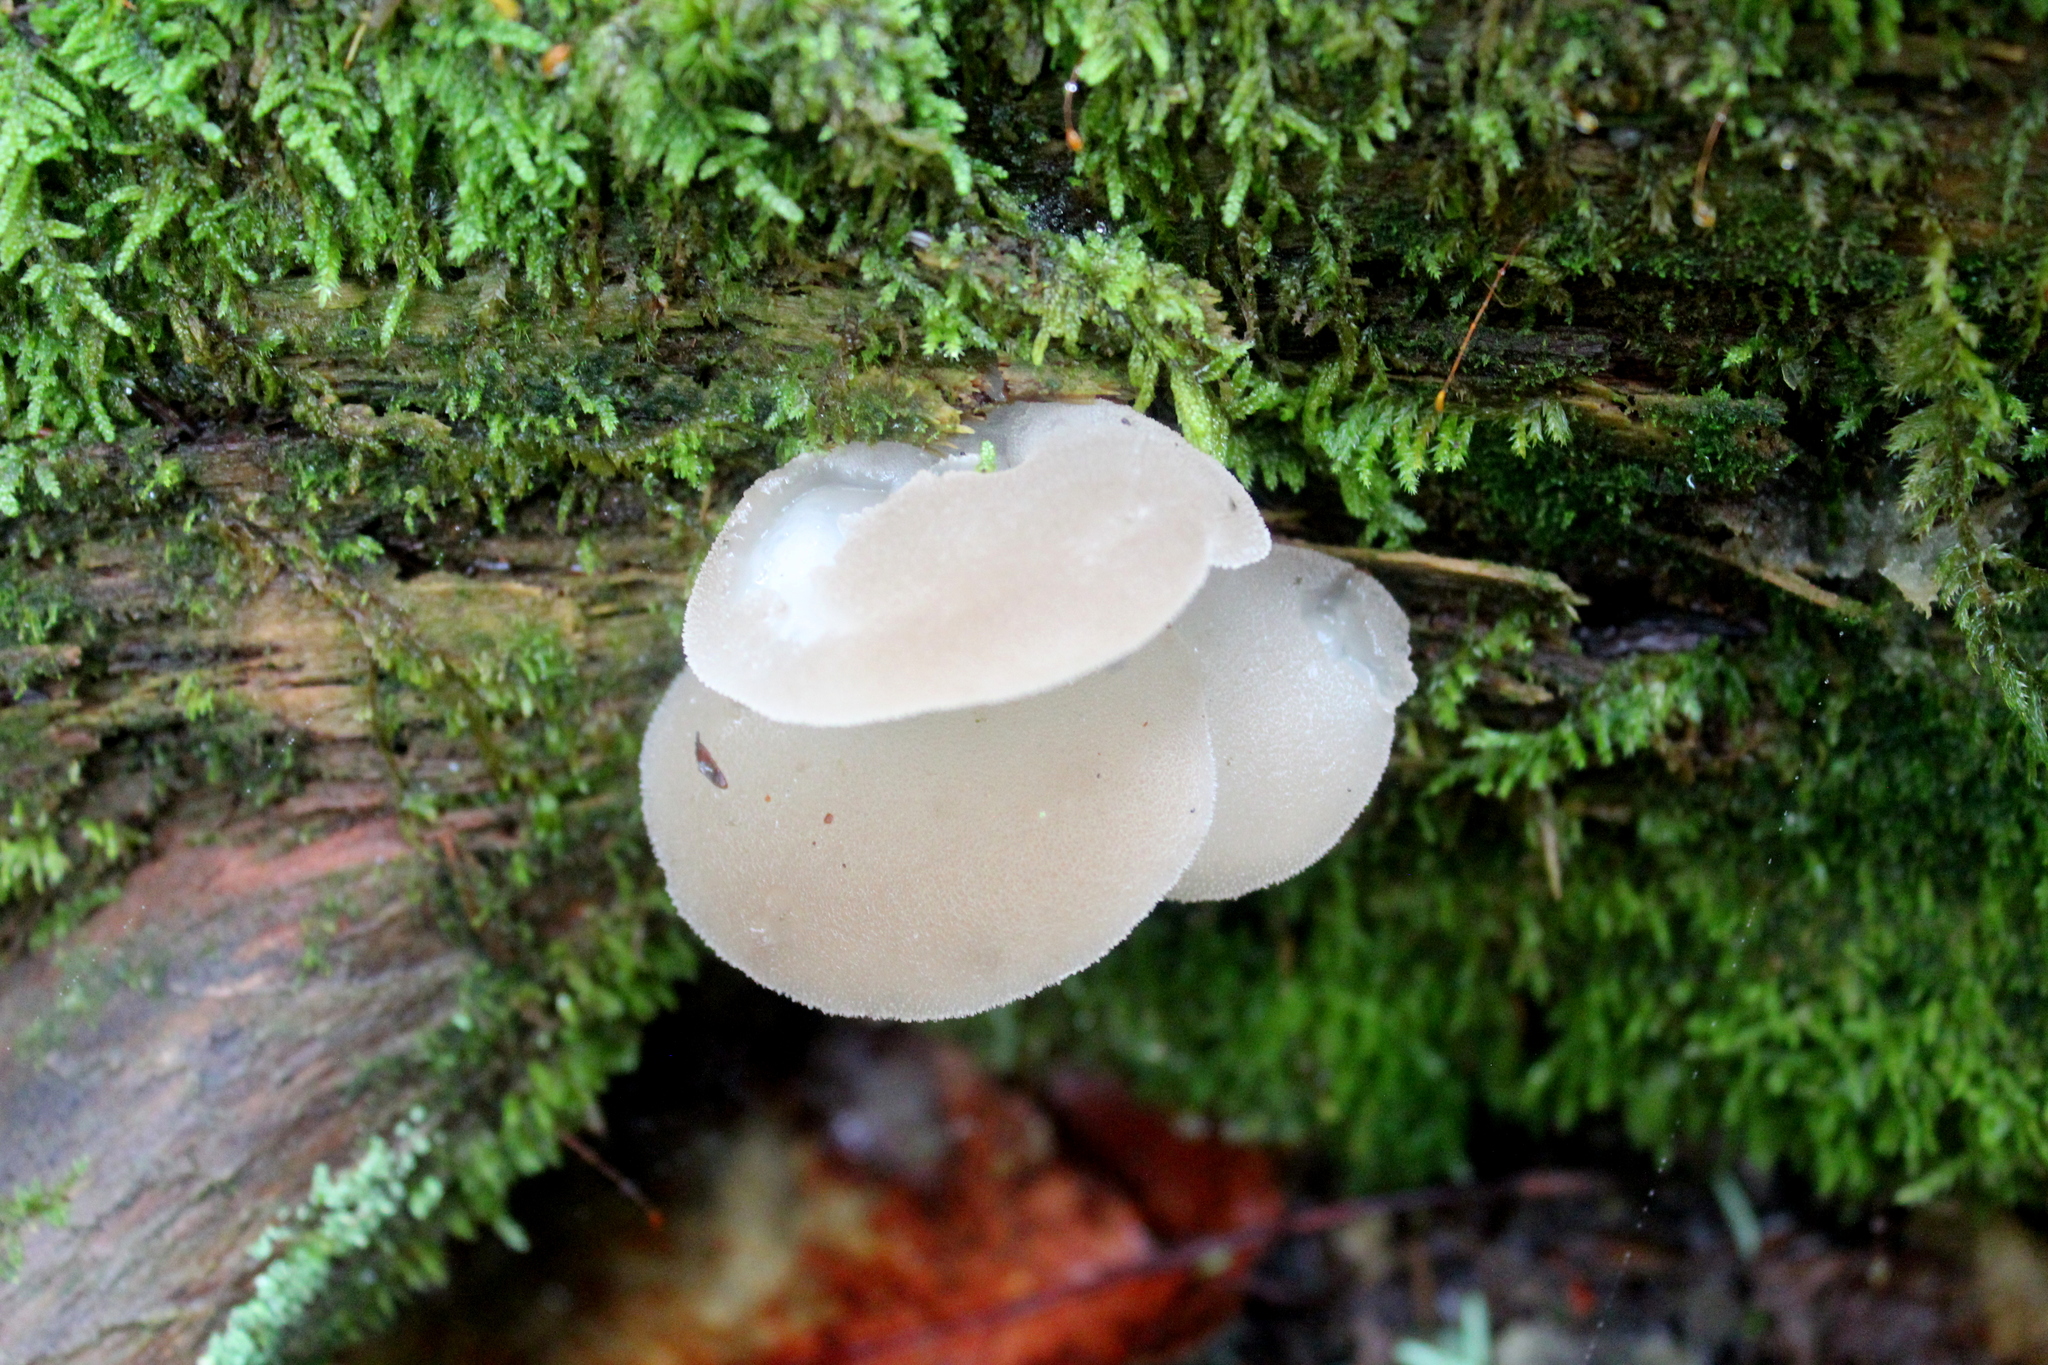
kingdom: Fungi
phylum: Basidiomycota
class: Agaricomycetes
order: Auriculariales
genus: Pseudohydnum
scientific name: Pseudohydnum gelatinosum
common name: Jelly tongue
